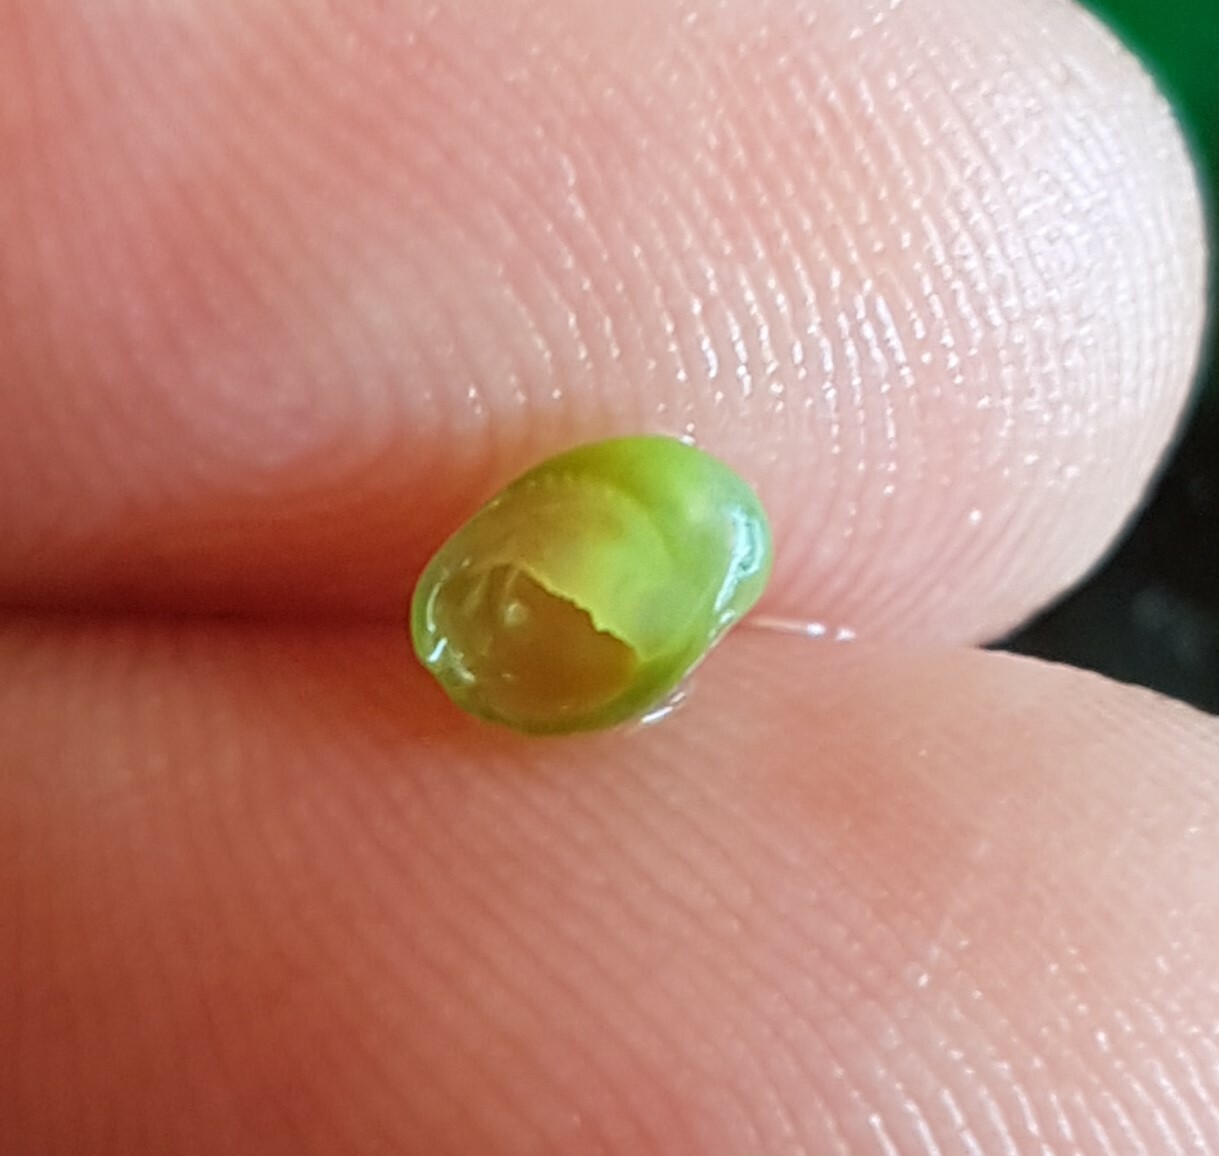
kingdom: Animalia
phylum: Mollusca
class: Gastropoda
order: Cycloneritida
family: Neritidae
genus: Smaragdia
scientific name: Smaragdia viridis
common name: Emerald nerite
